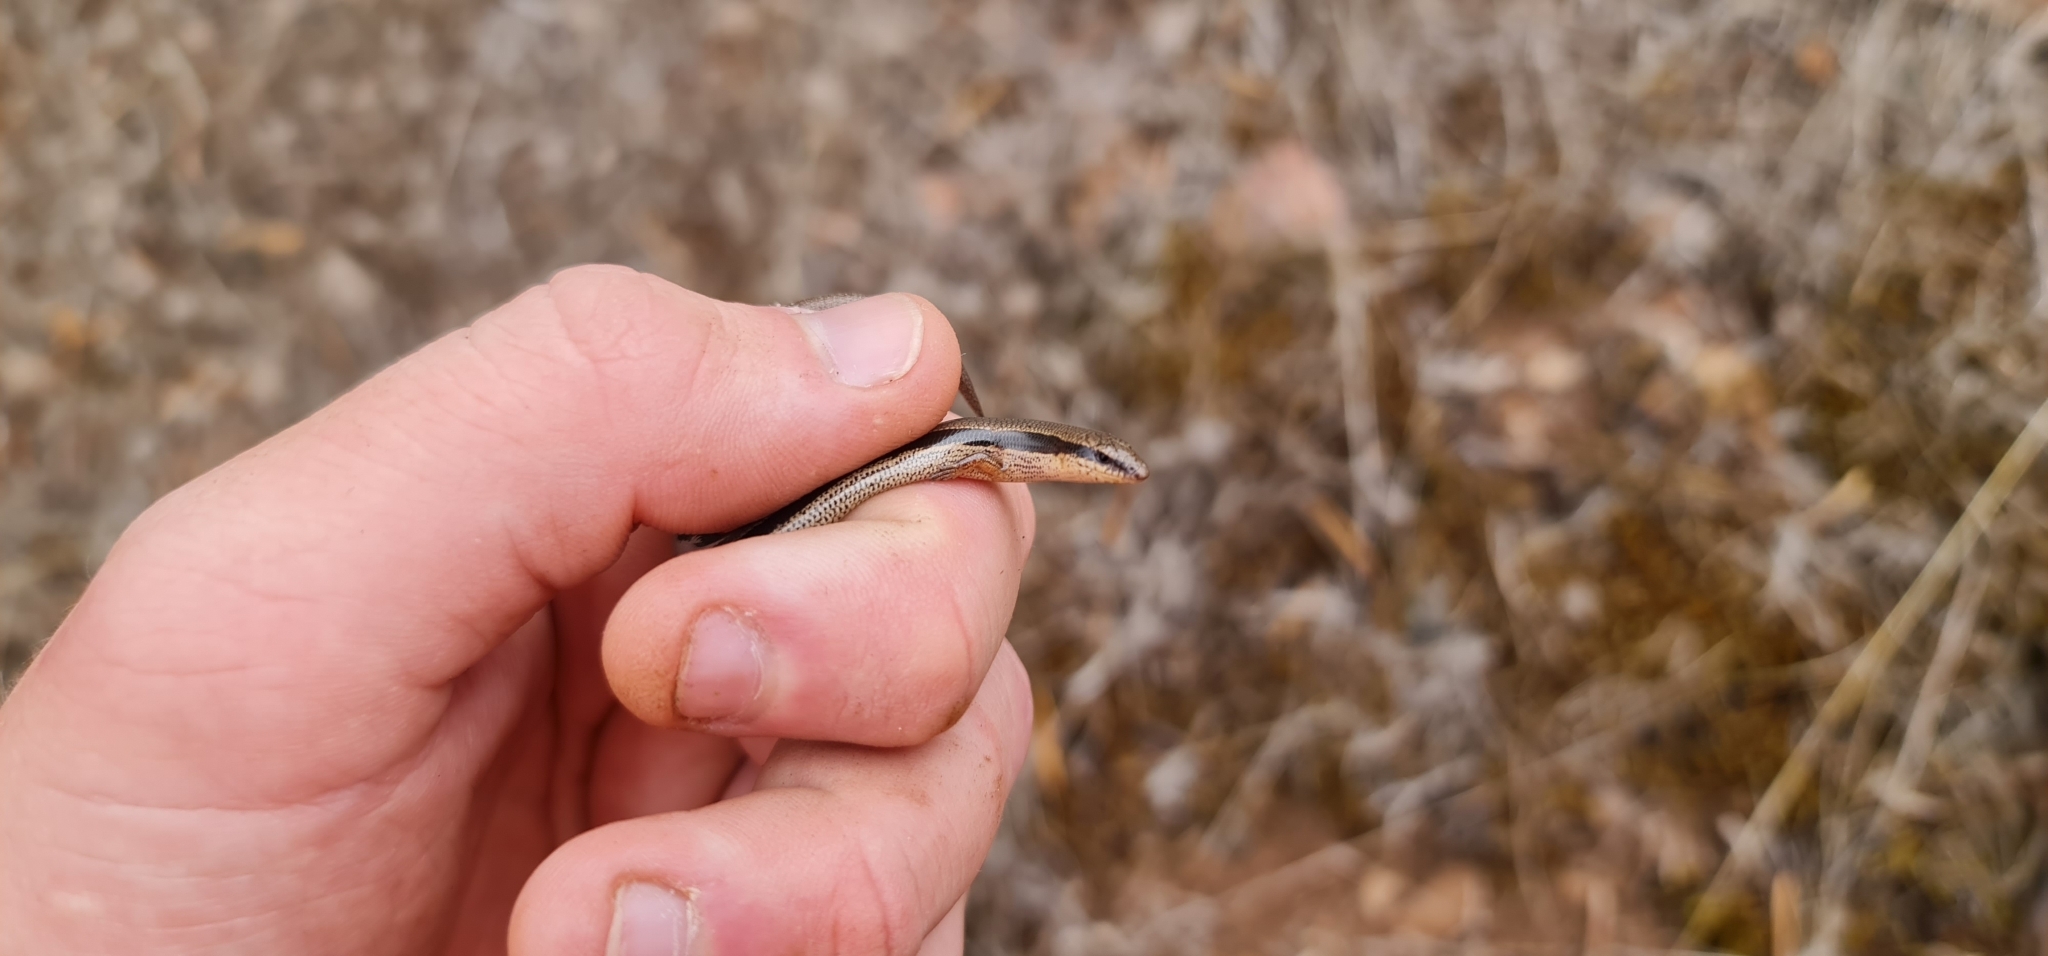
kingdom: Animalia
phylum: Chordata
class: Squamata
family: Scincidae
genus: Lerista
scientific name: Lerista bougainvillii
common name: South-eastern slider
